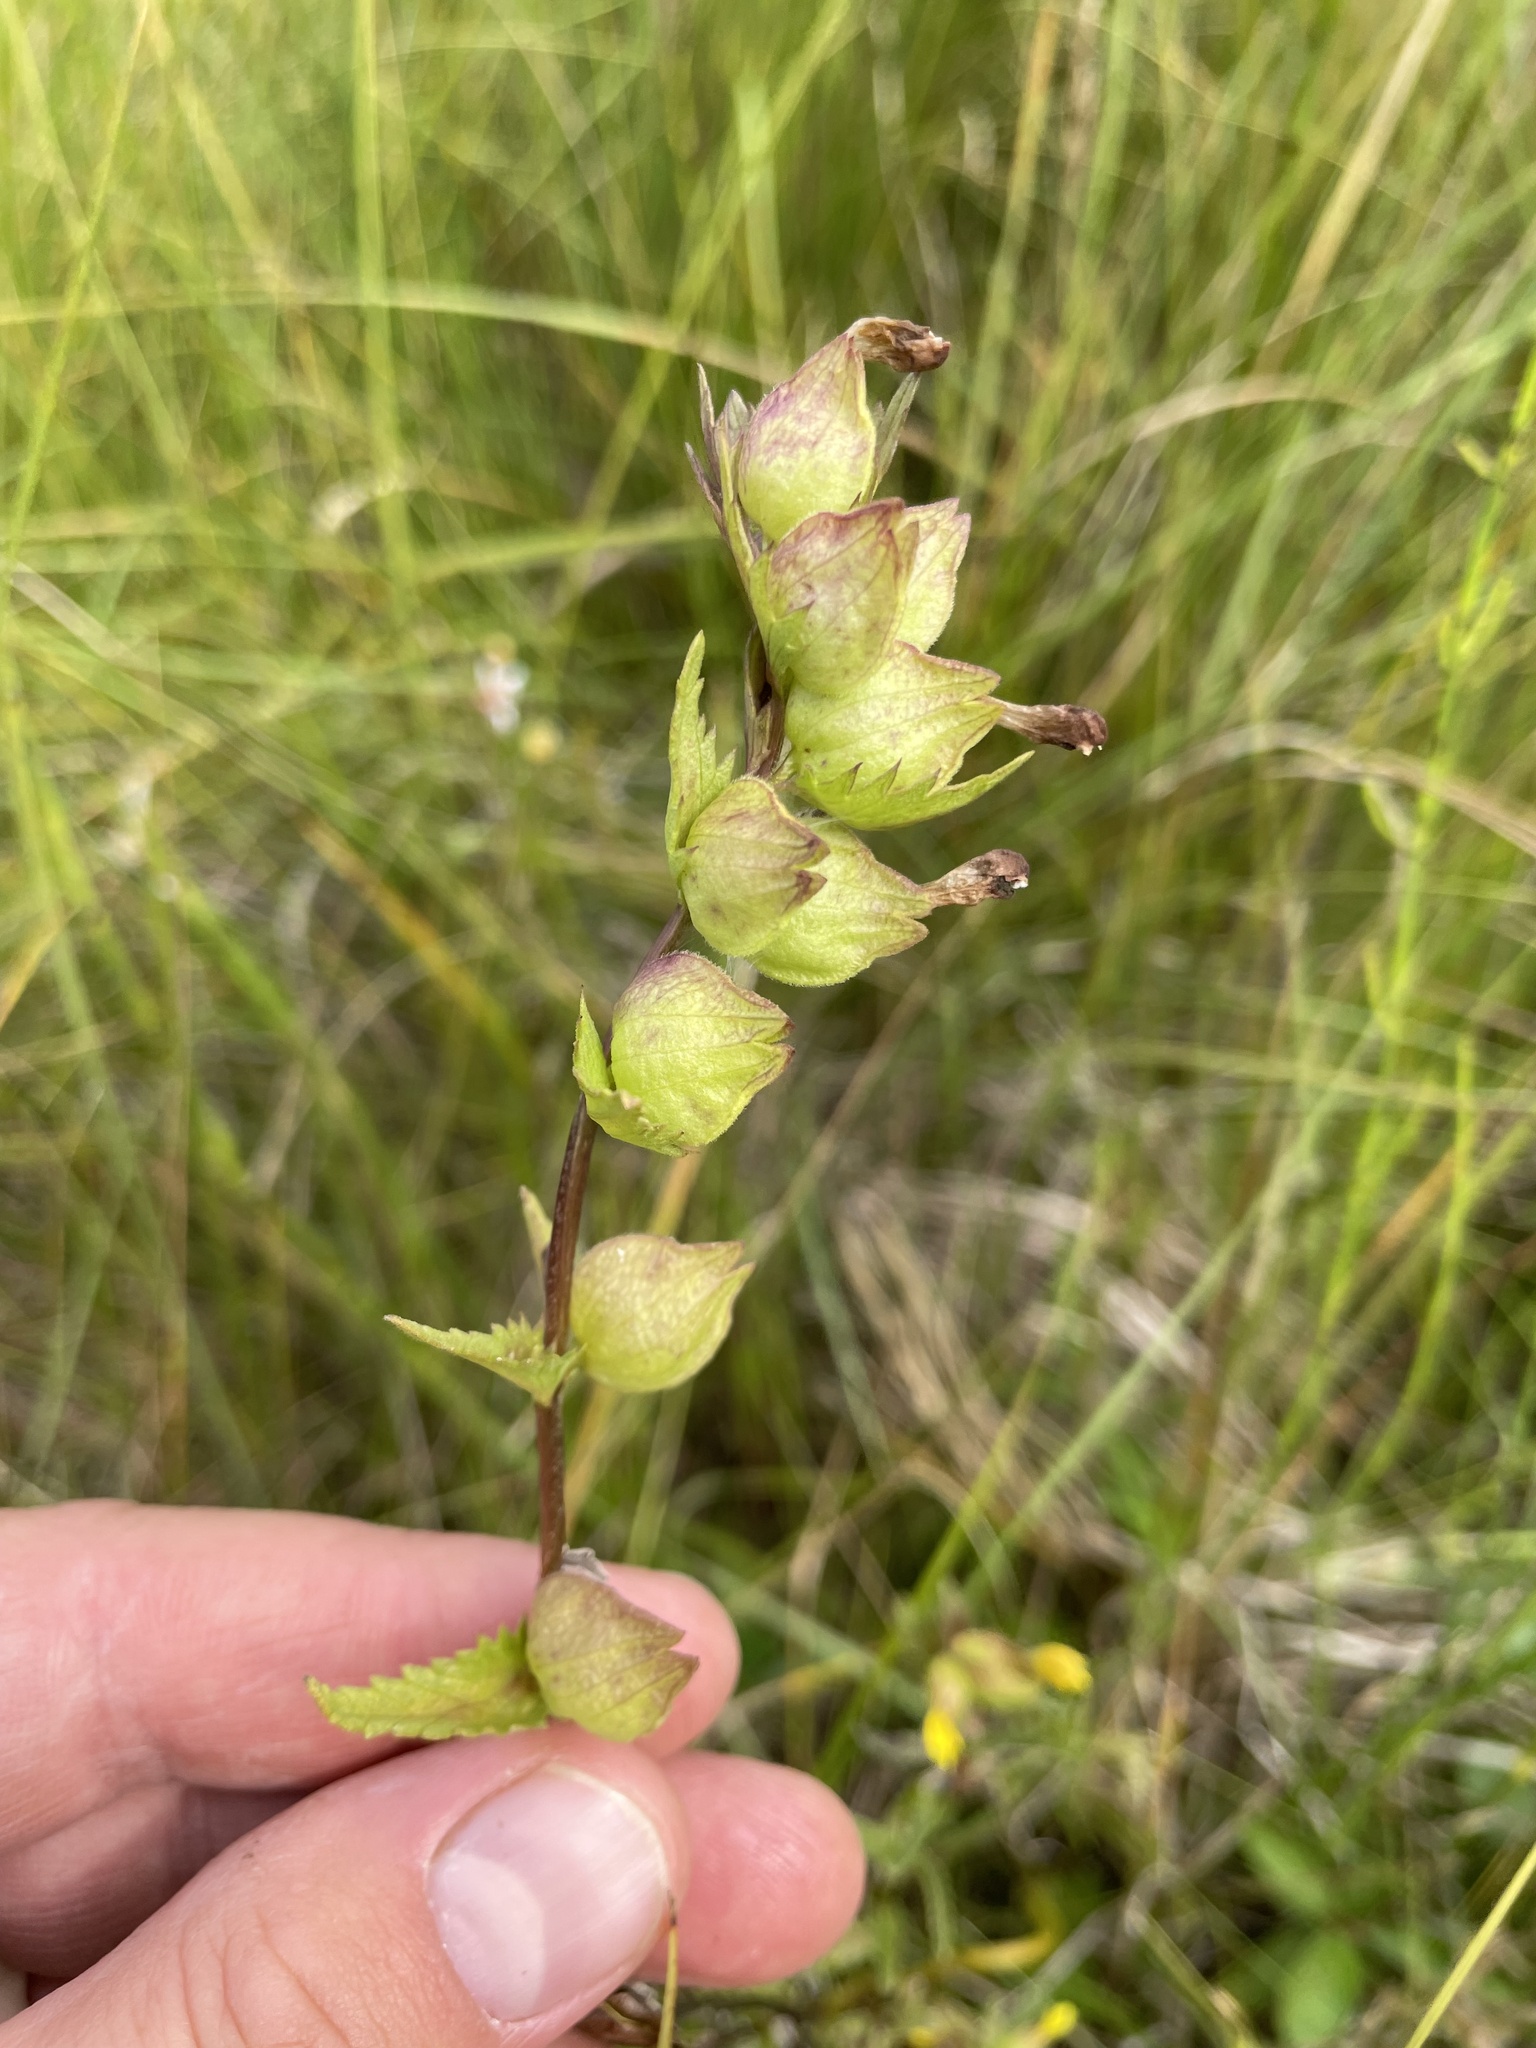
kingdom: Plantae
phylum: Tracheophyta
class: Magnoliopsida
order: Lamiales
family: Orobanchaceae
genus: Rhinanthus
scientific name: Rhinanthus groenlandicus
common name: Little yellow rattle
